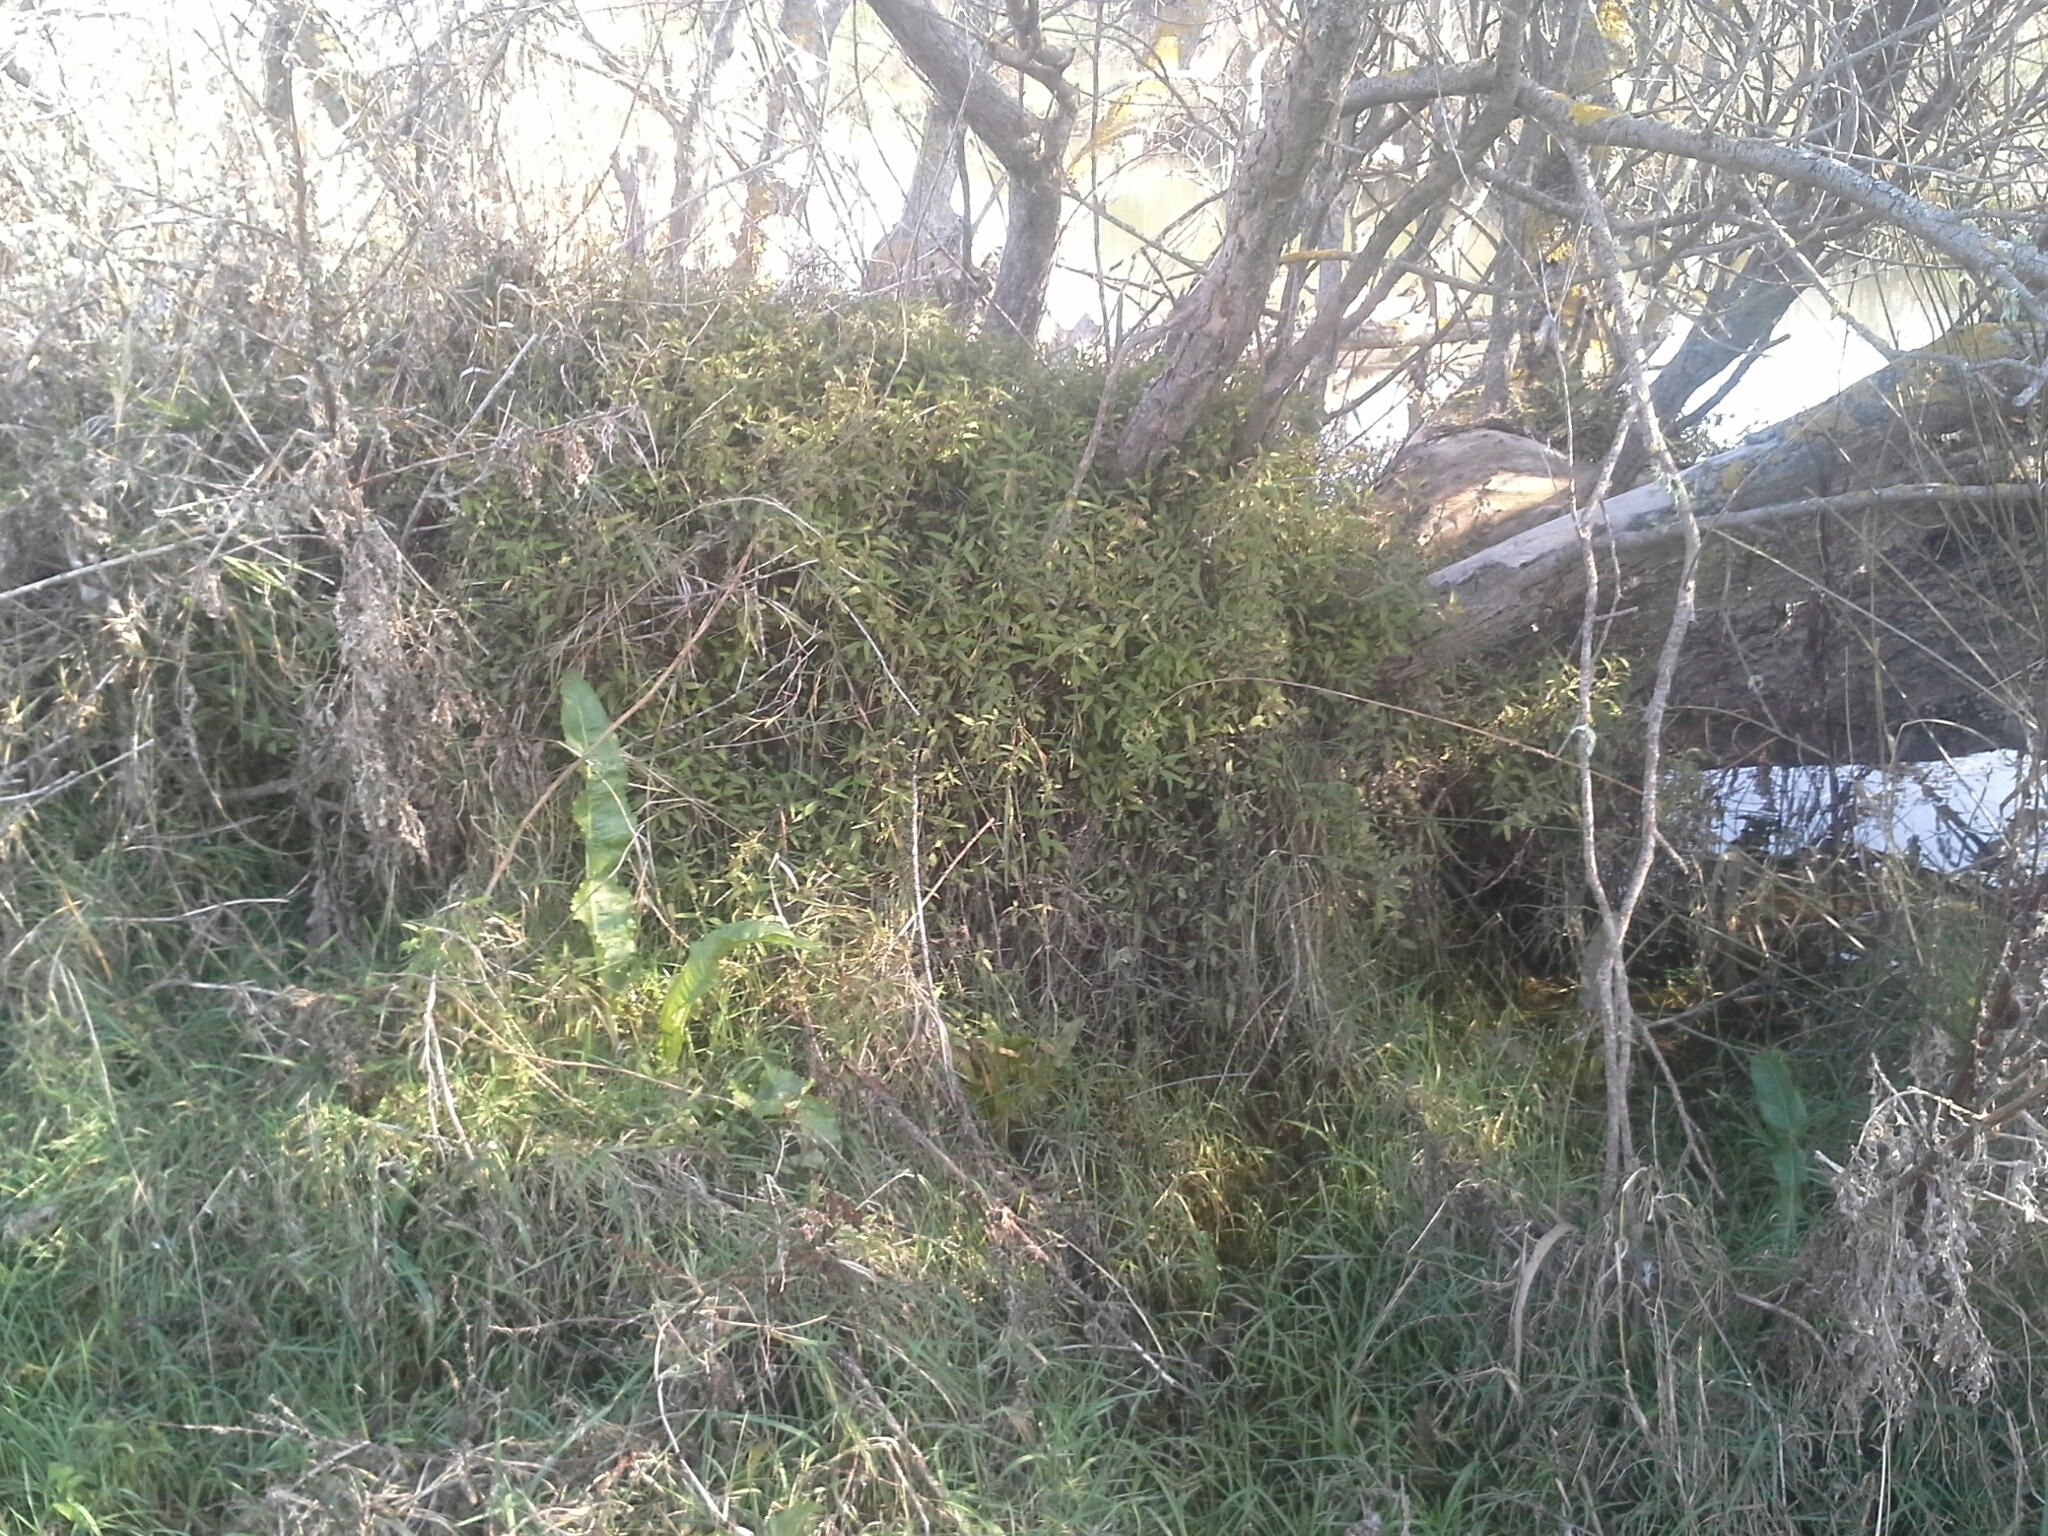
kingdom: Plantae
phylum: Tracheophyta
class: Magnoliopsida
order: Rosales
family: Urticaceae
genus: Urtica
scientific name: Urtica perconfusa
